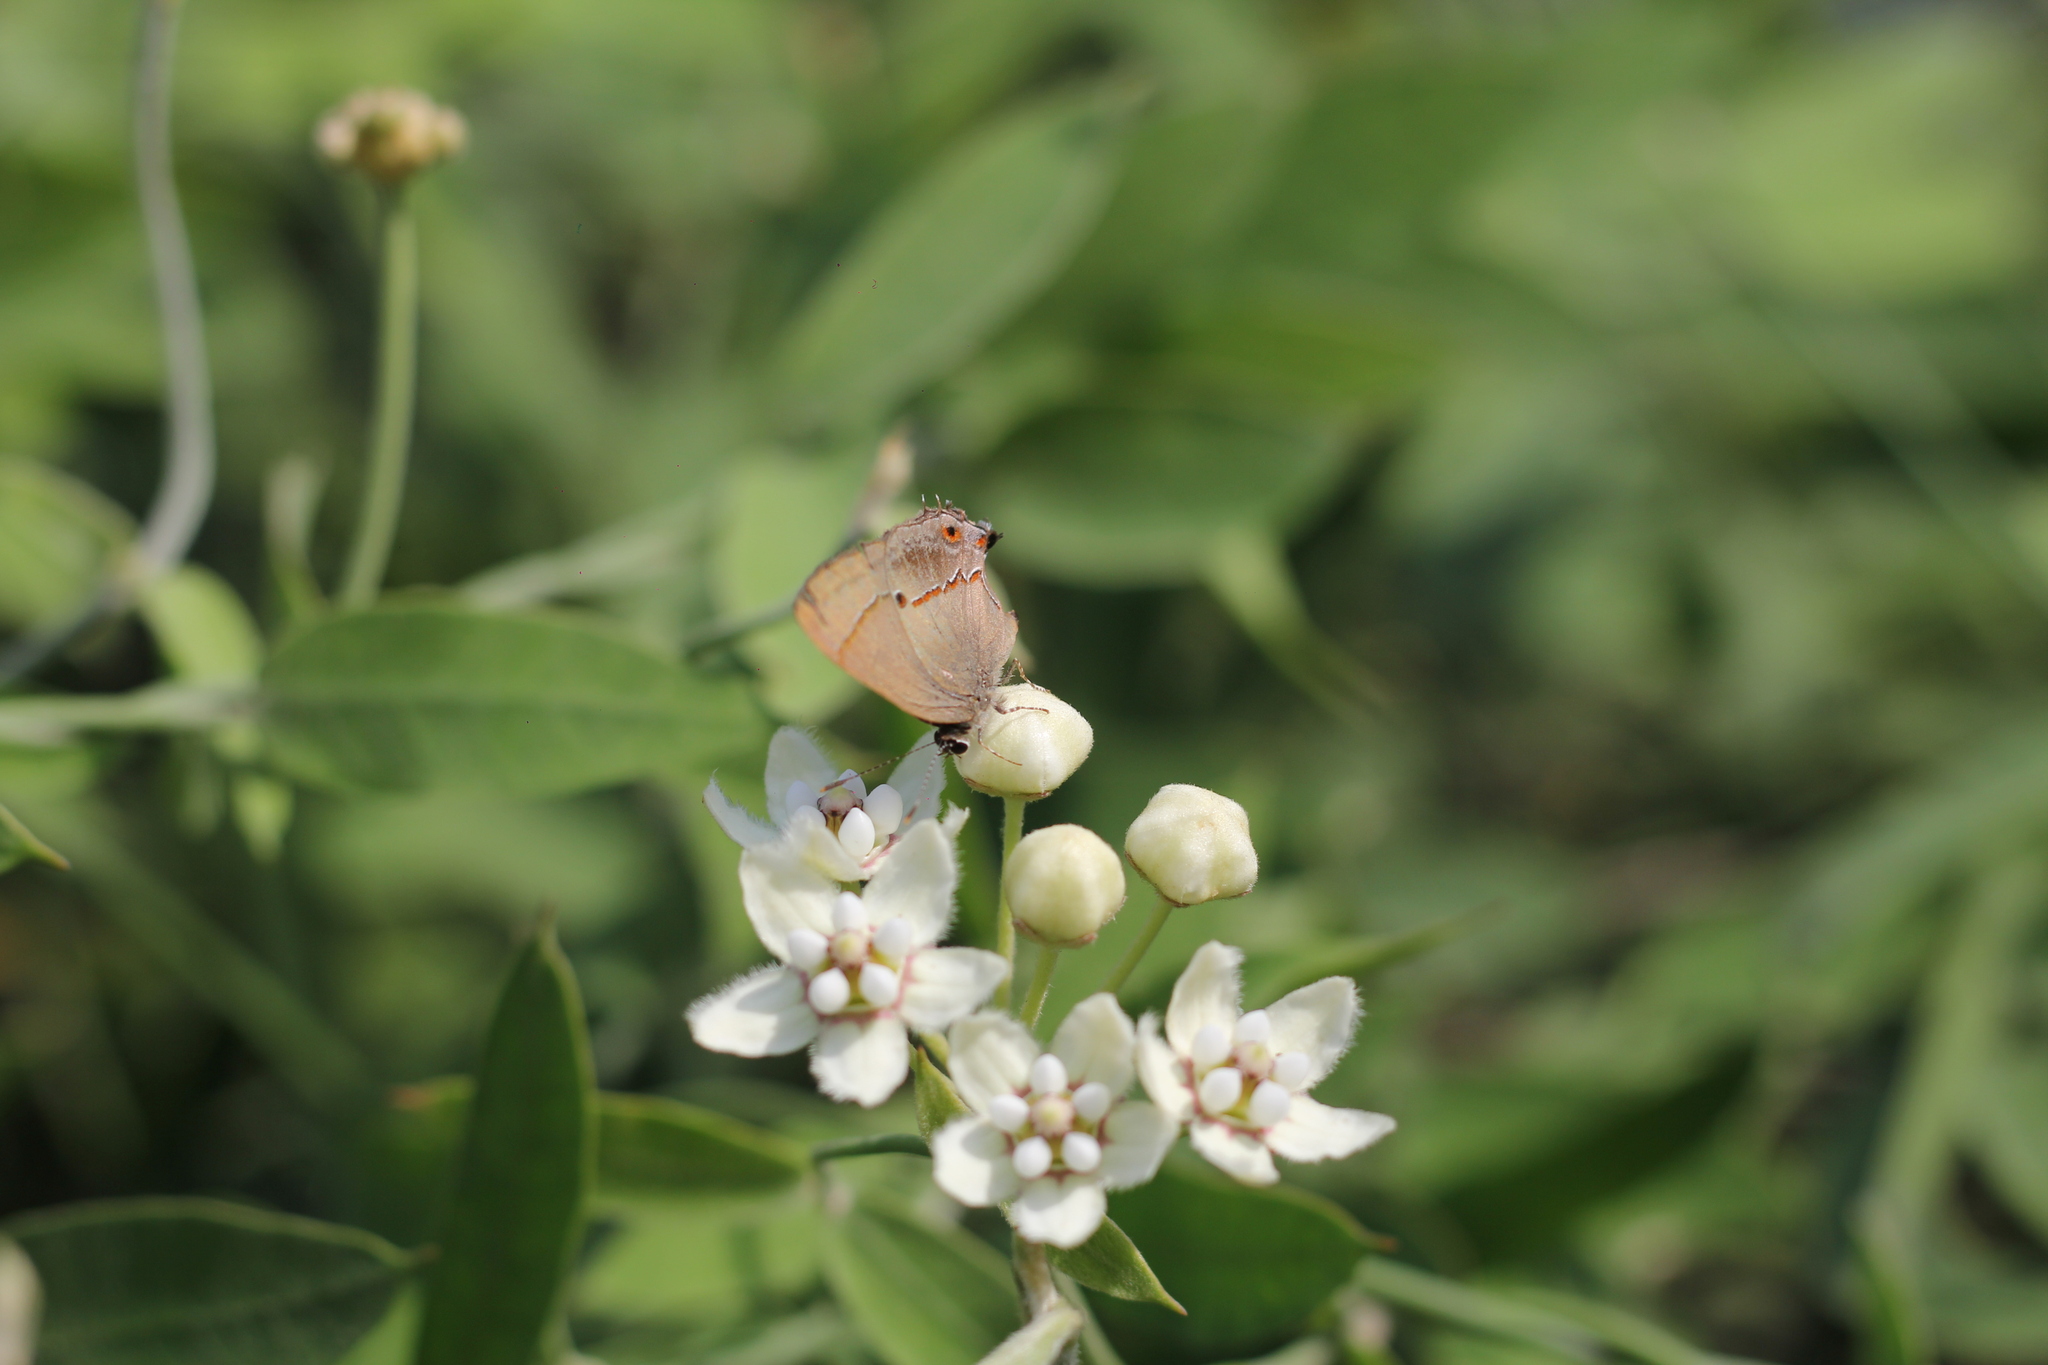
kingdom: Animalia
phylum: Arthropoda
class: Insecta
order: Lepidoptera
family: Lycaenidae
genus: Thecla
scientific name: Thecla badaca
